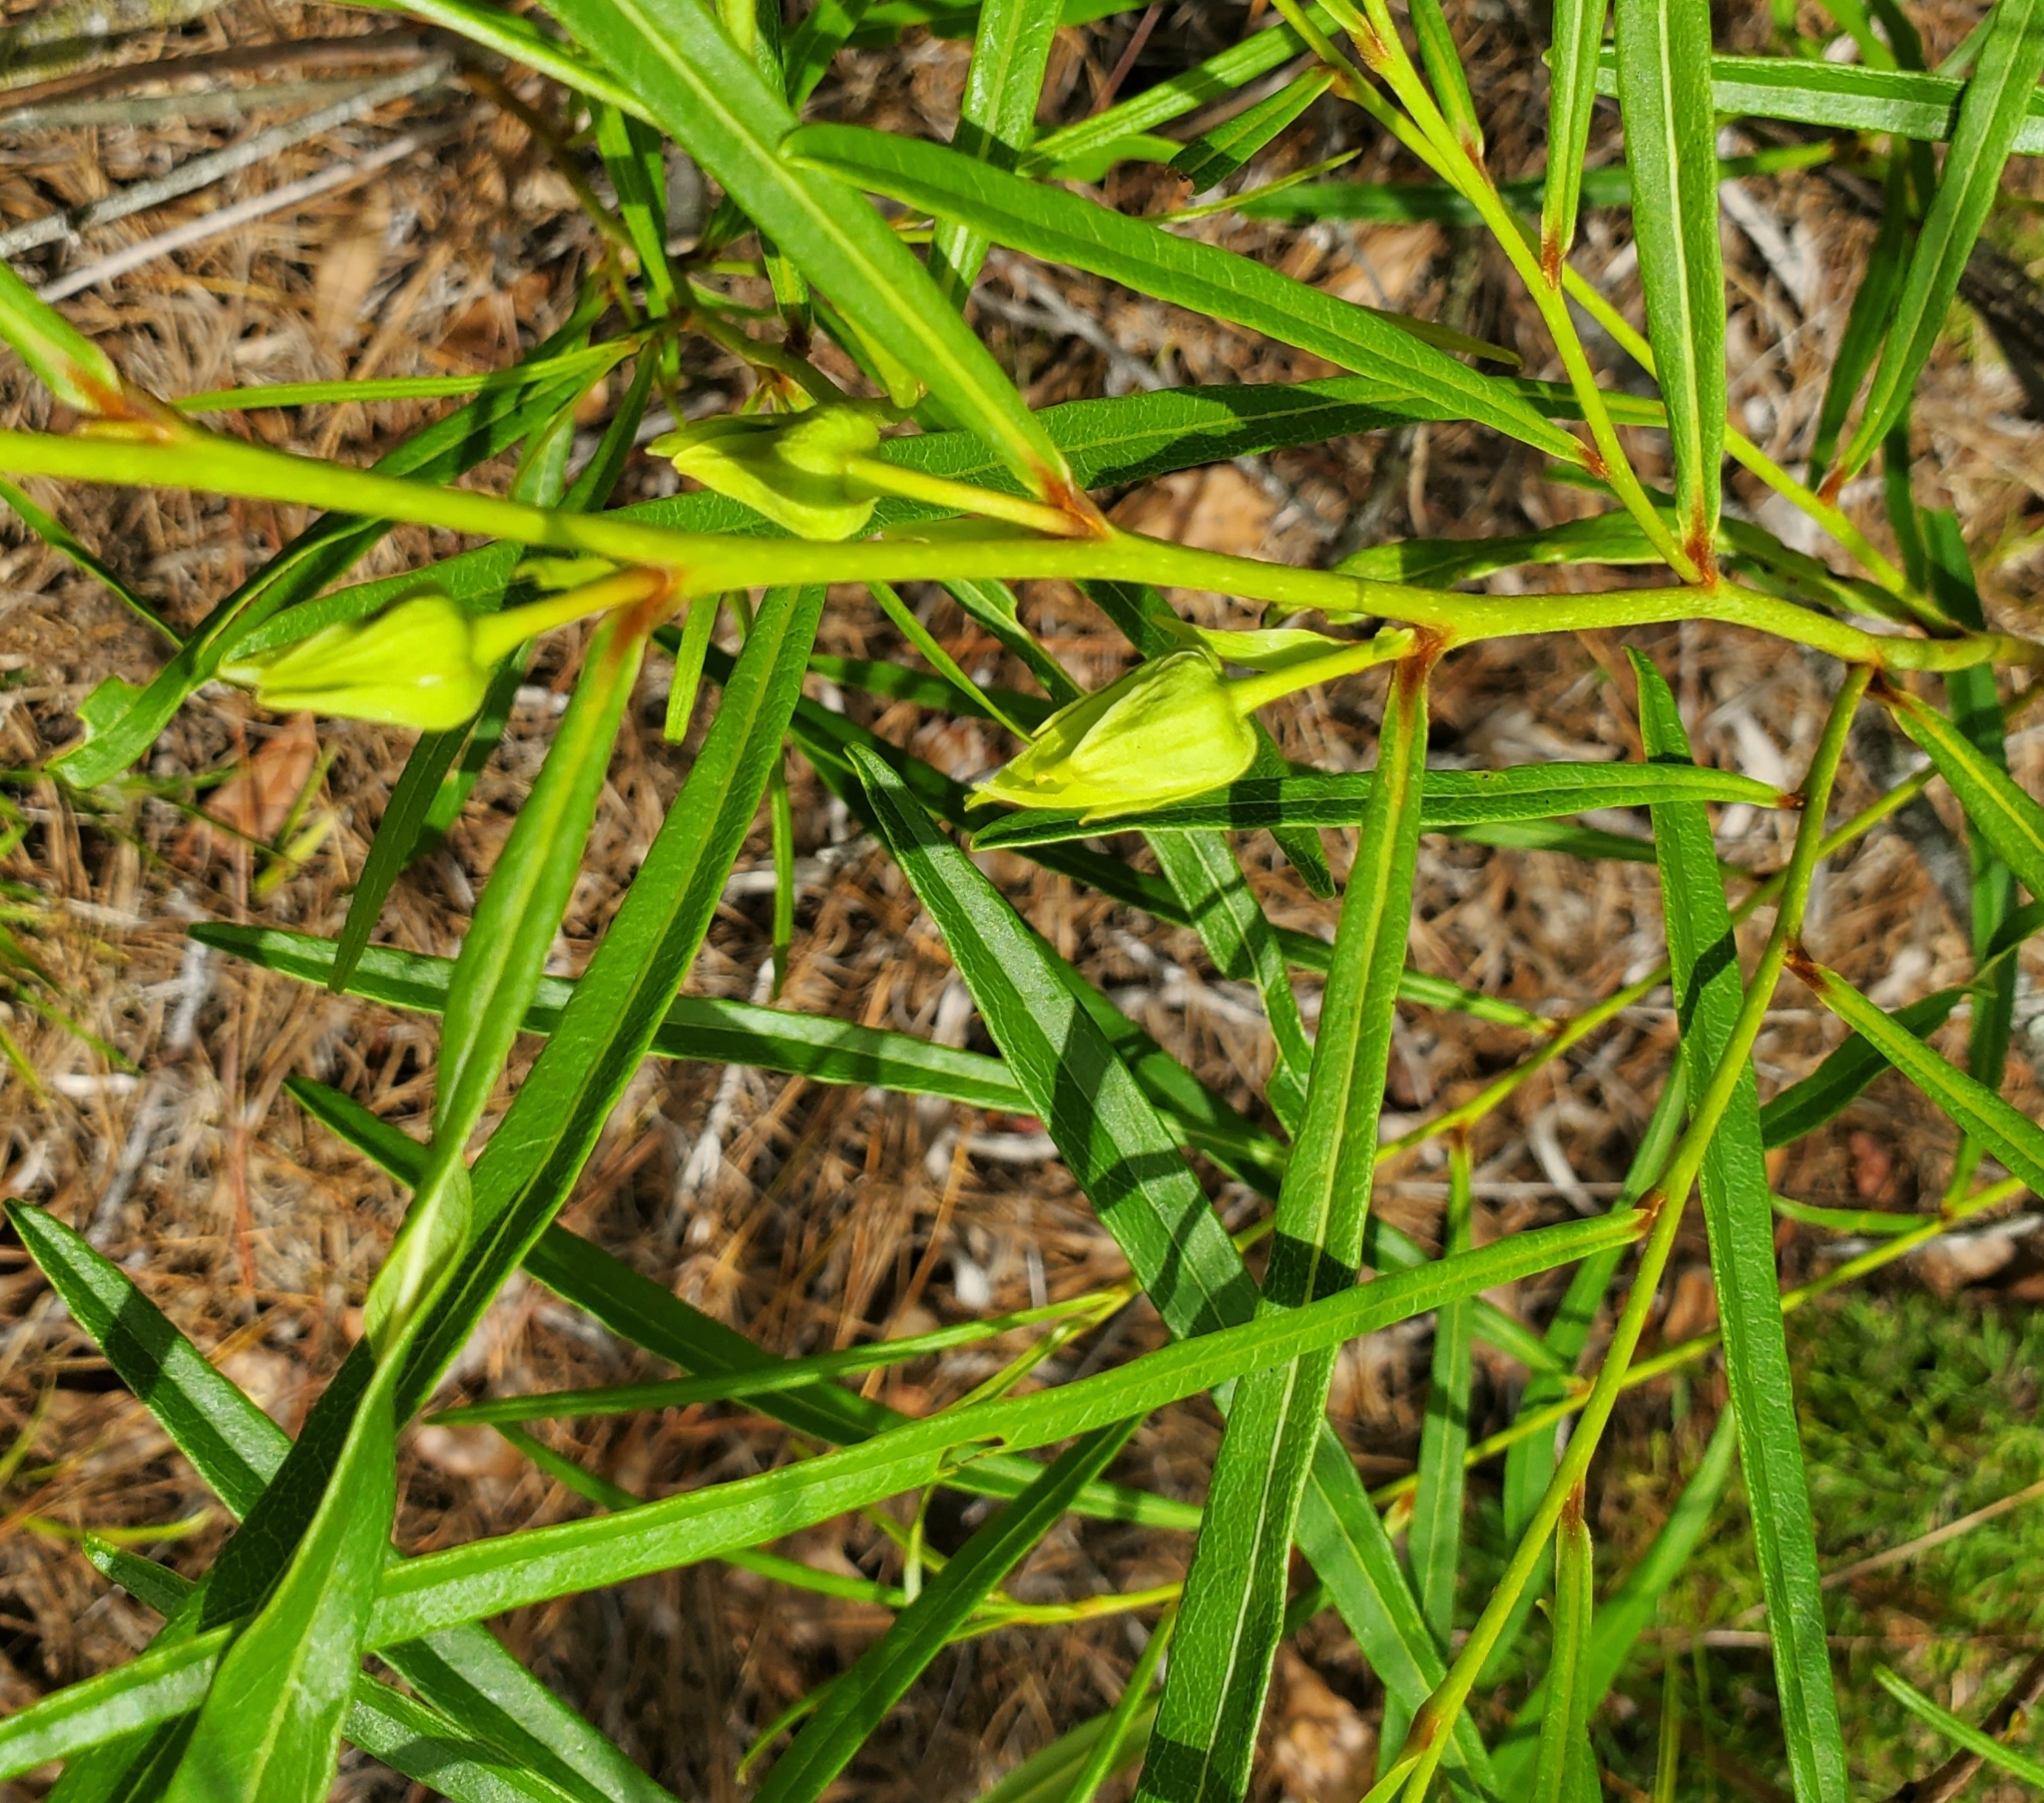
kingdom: Plantae
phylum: Tracheophyta
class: Magnoliopsida
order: Magnoliales
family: Annonaceae
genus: Asimina
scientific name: Asimina longifolia
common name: Polecatbush
